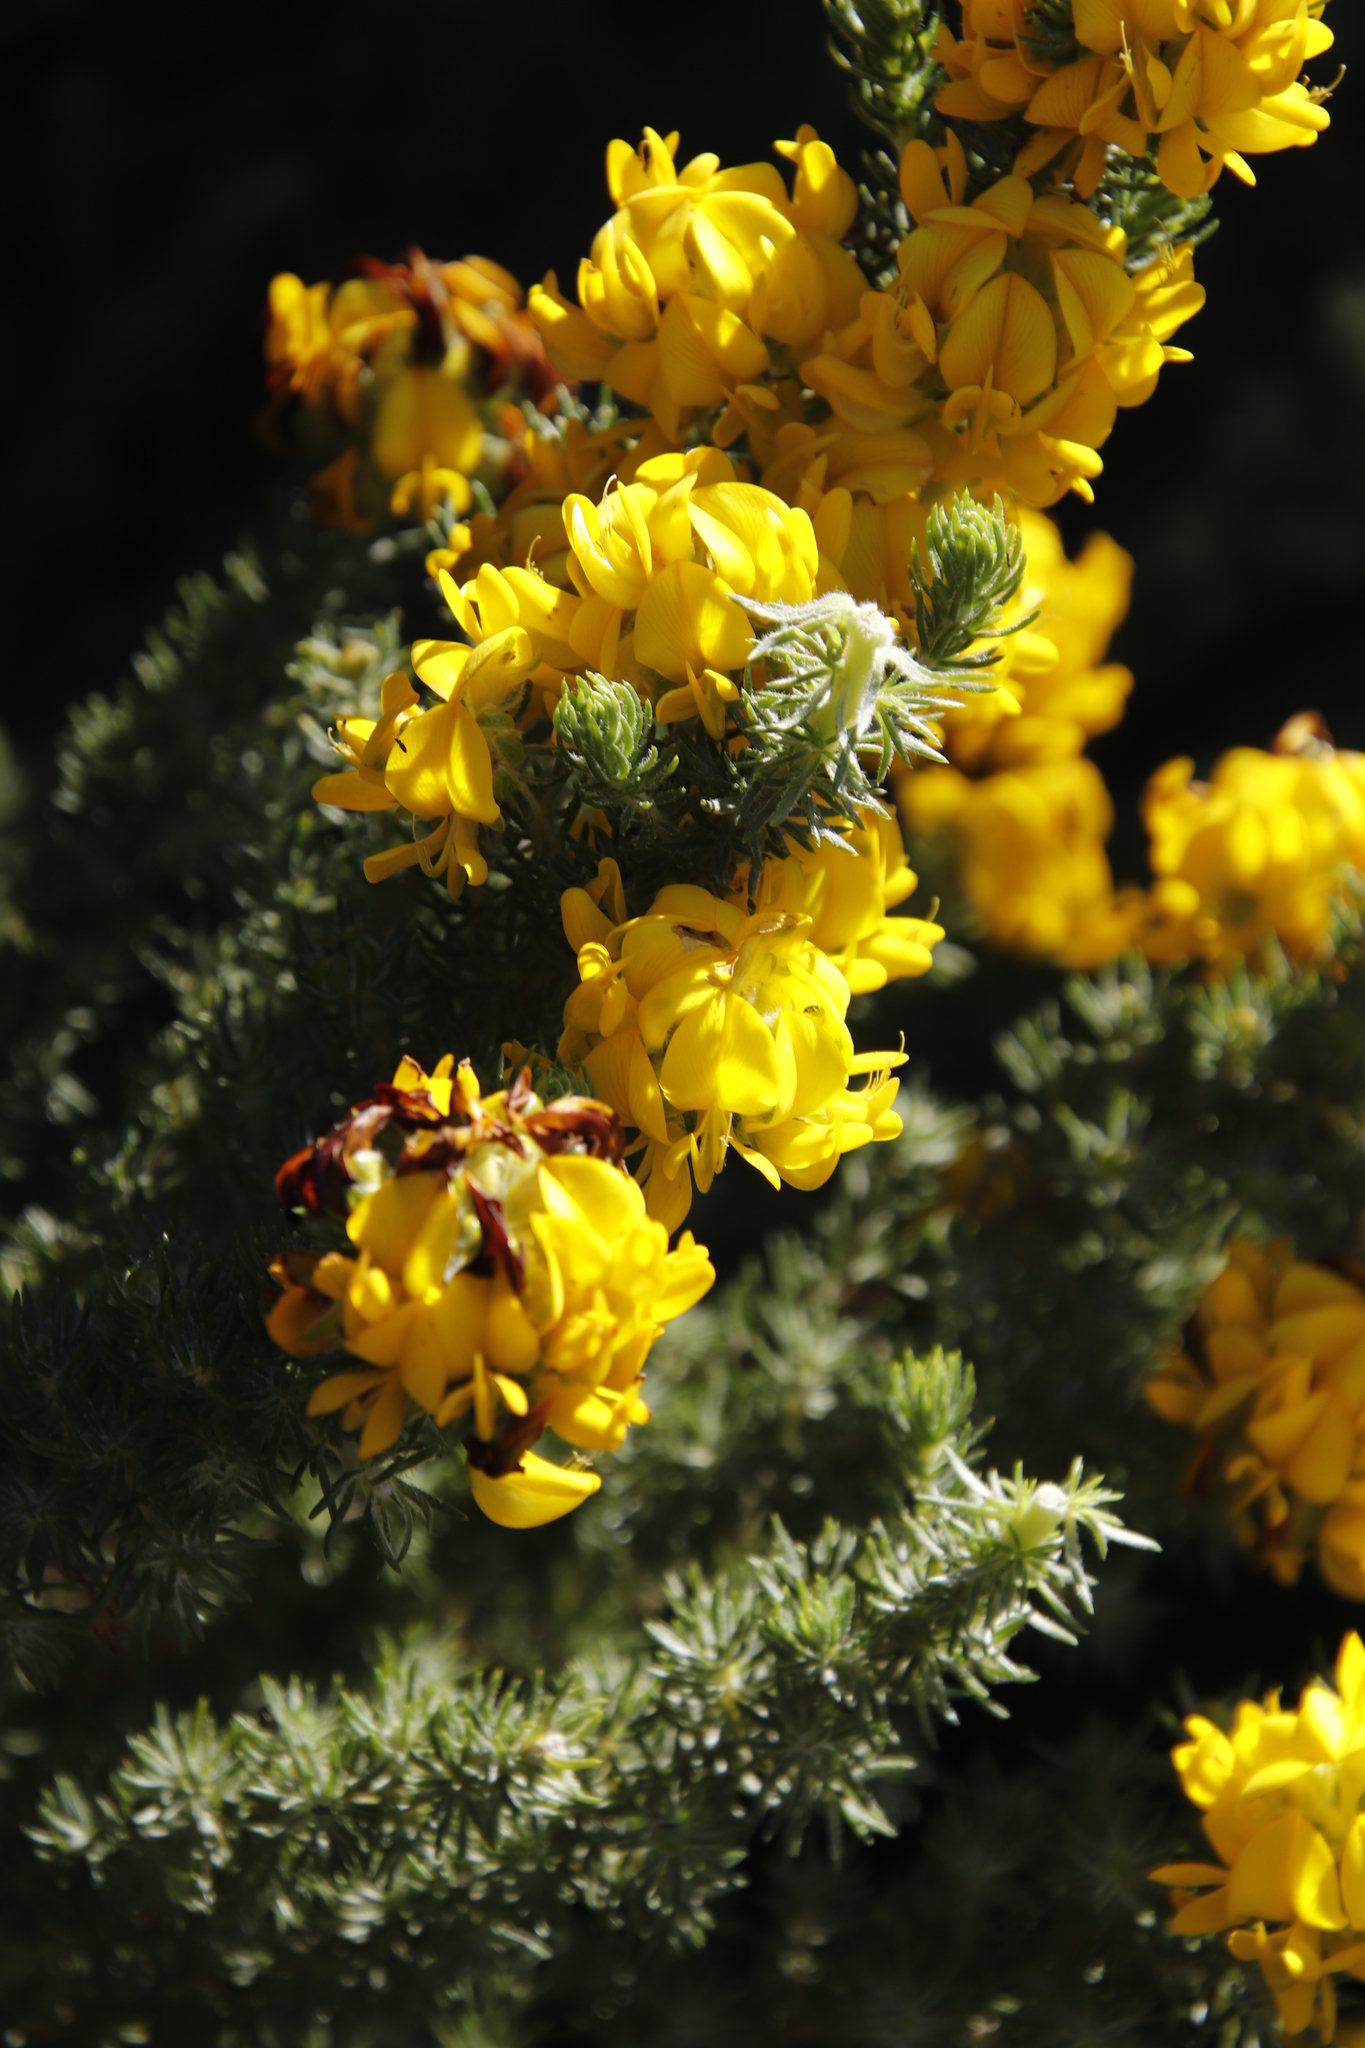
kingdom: Plantae
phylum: Tracheophyta
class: Magnoliopsida
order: Fabales
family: Fabaceae
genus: Aspalathus
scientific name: Aspalathus capitata
